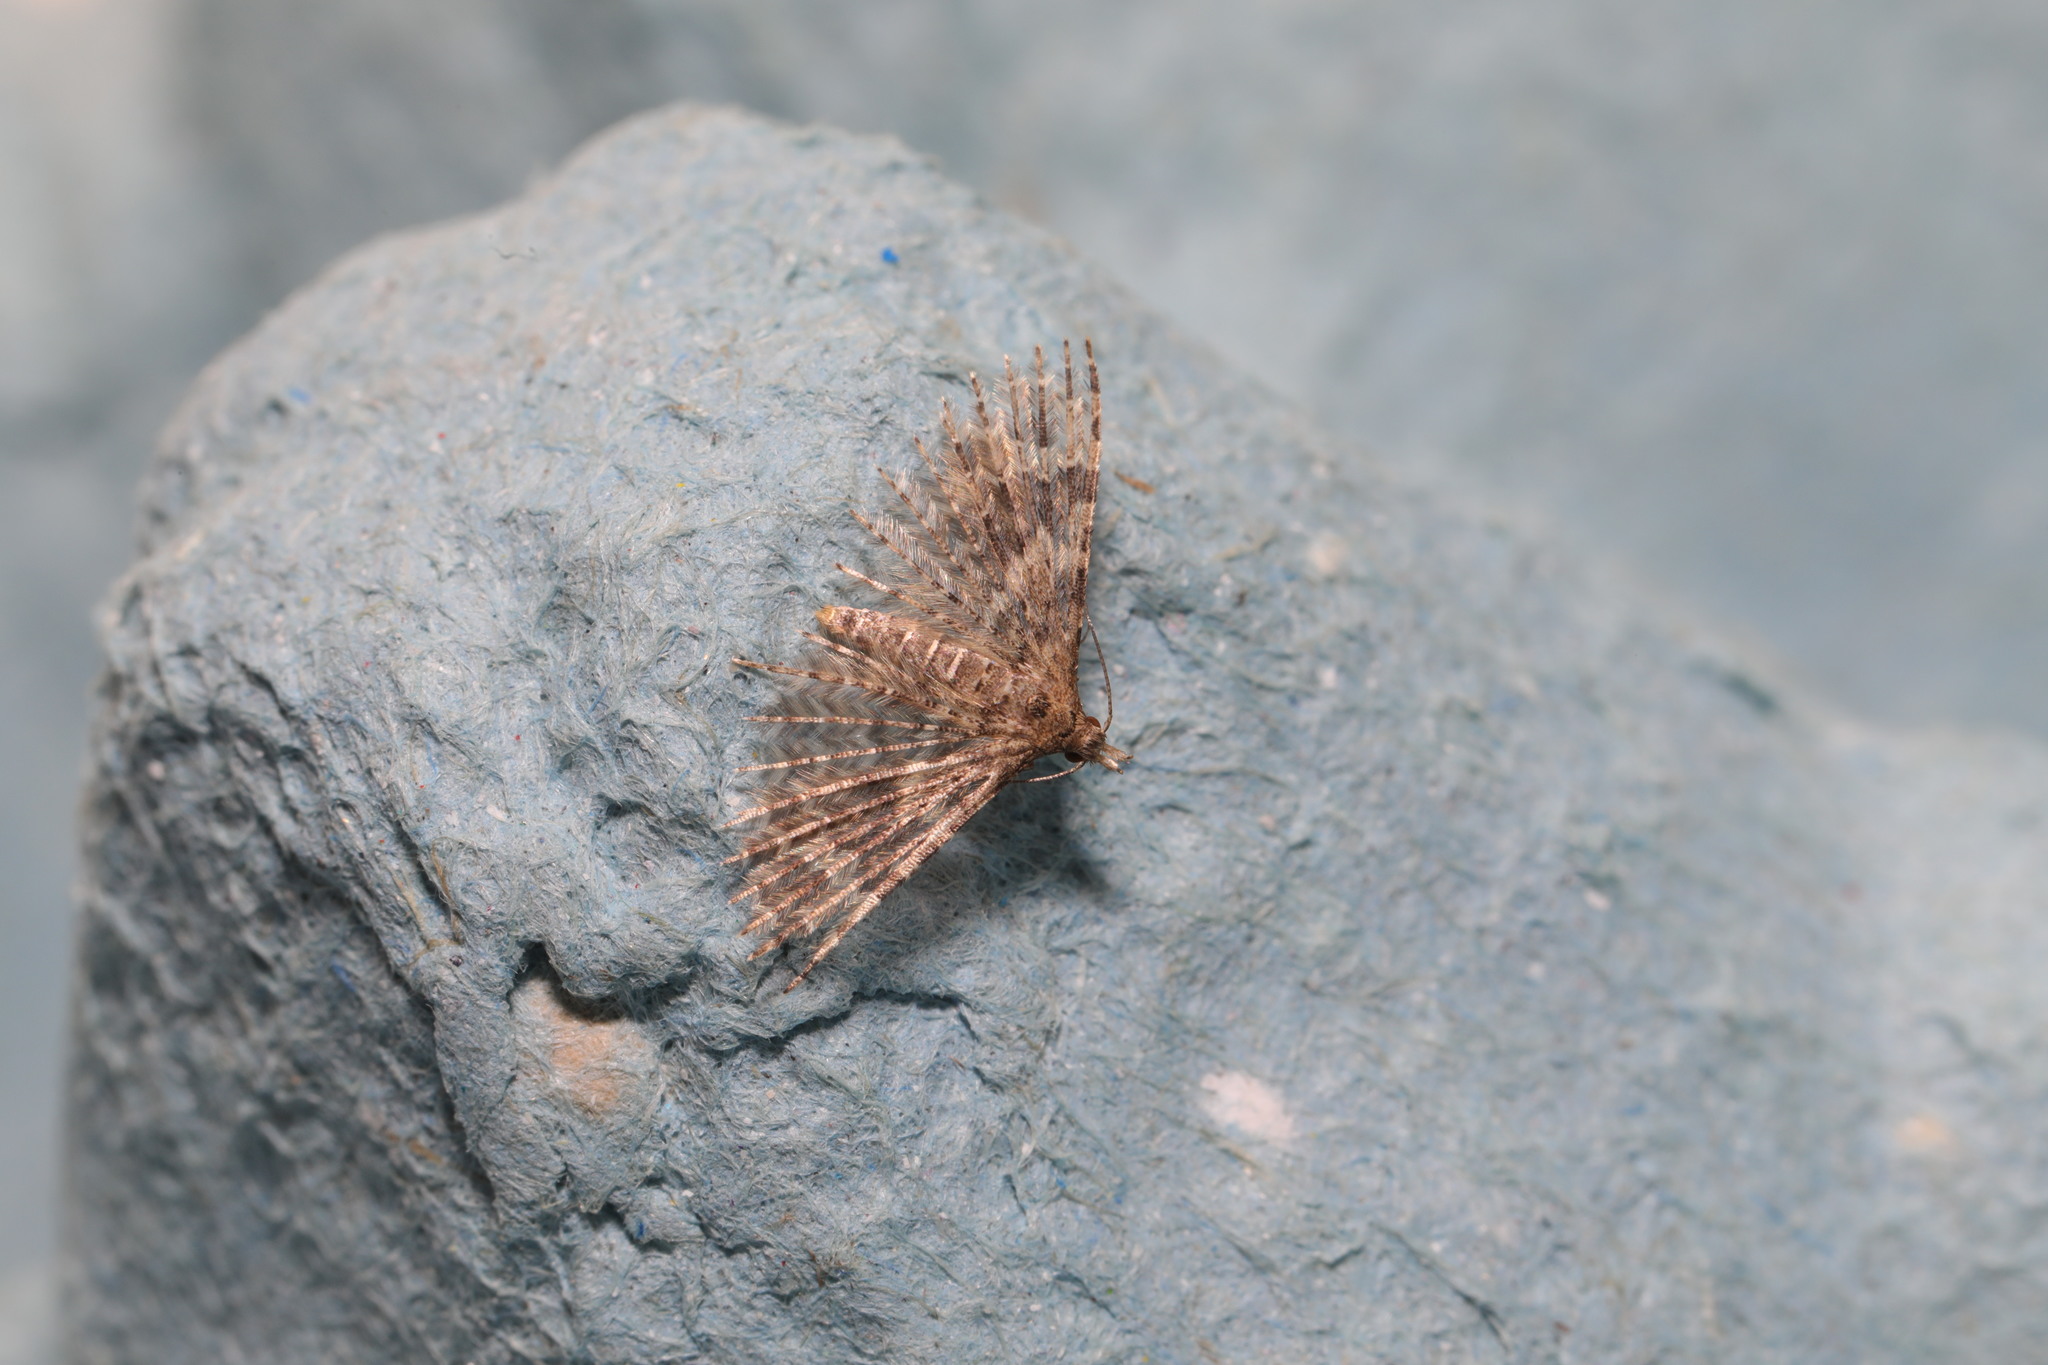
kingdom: Animalia
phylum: Arthropoda
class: Insecta
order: Lepidoptera
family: Alucitidae
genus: Alucita
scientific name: Alucita hexadactyla
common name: Twenty-plume moth
